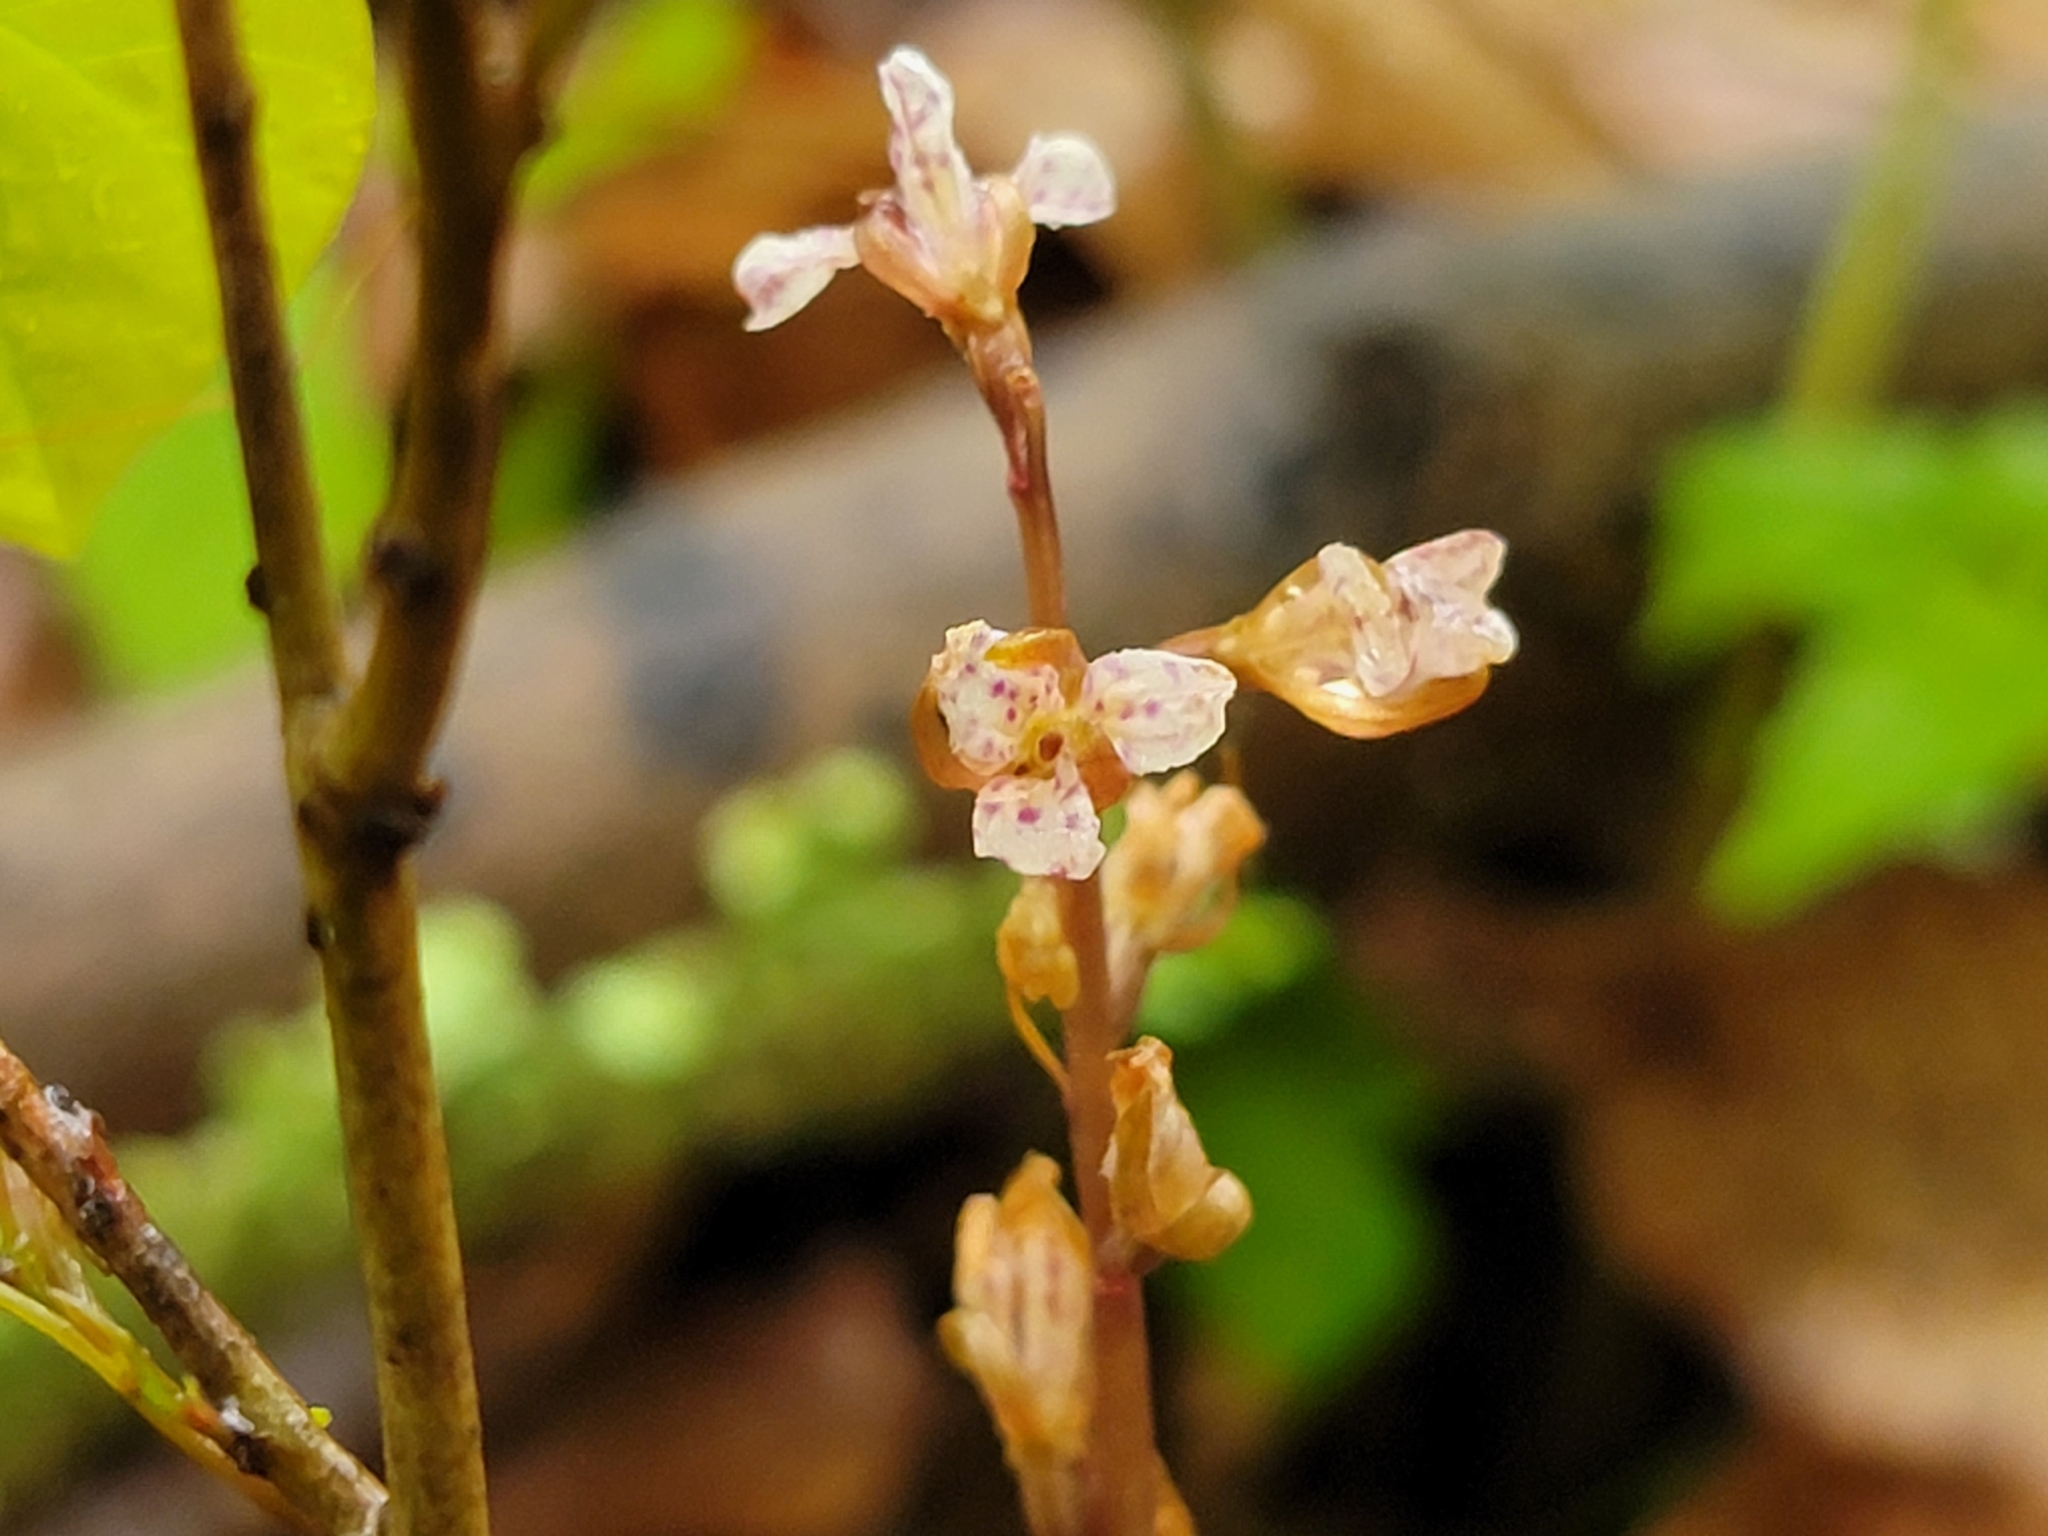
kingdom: Plantae
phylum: Tracheophyta
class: Liliopsida
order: Asparagales
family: Orchidaceae
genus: Corallorhiza
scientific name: Corallorhiza wisteriana
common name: Spring coralroot
